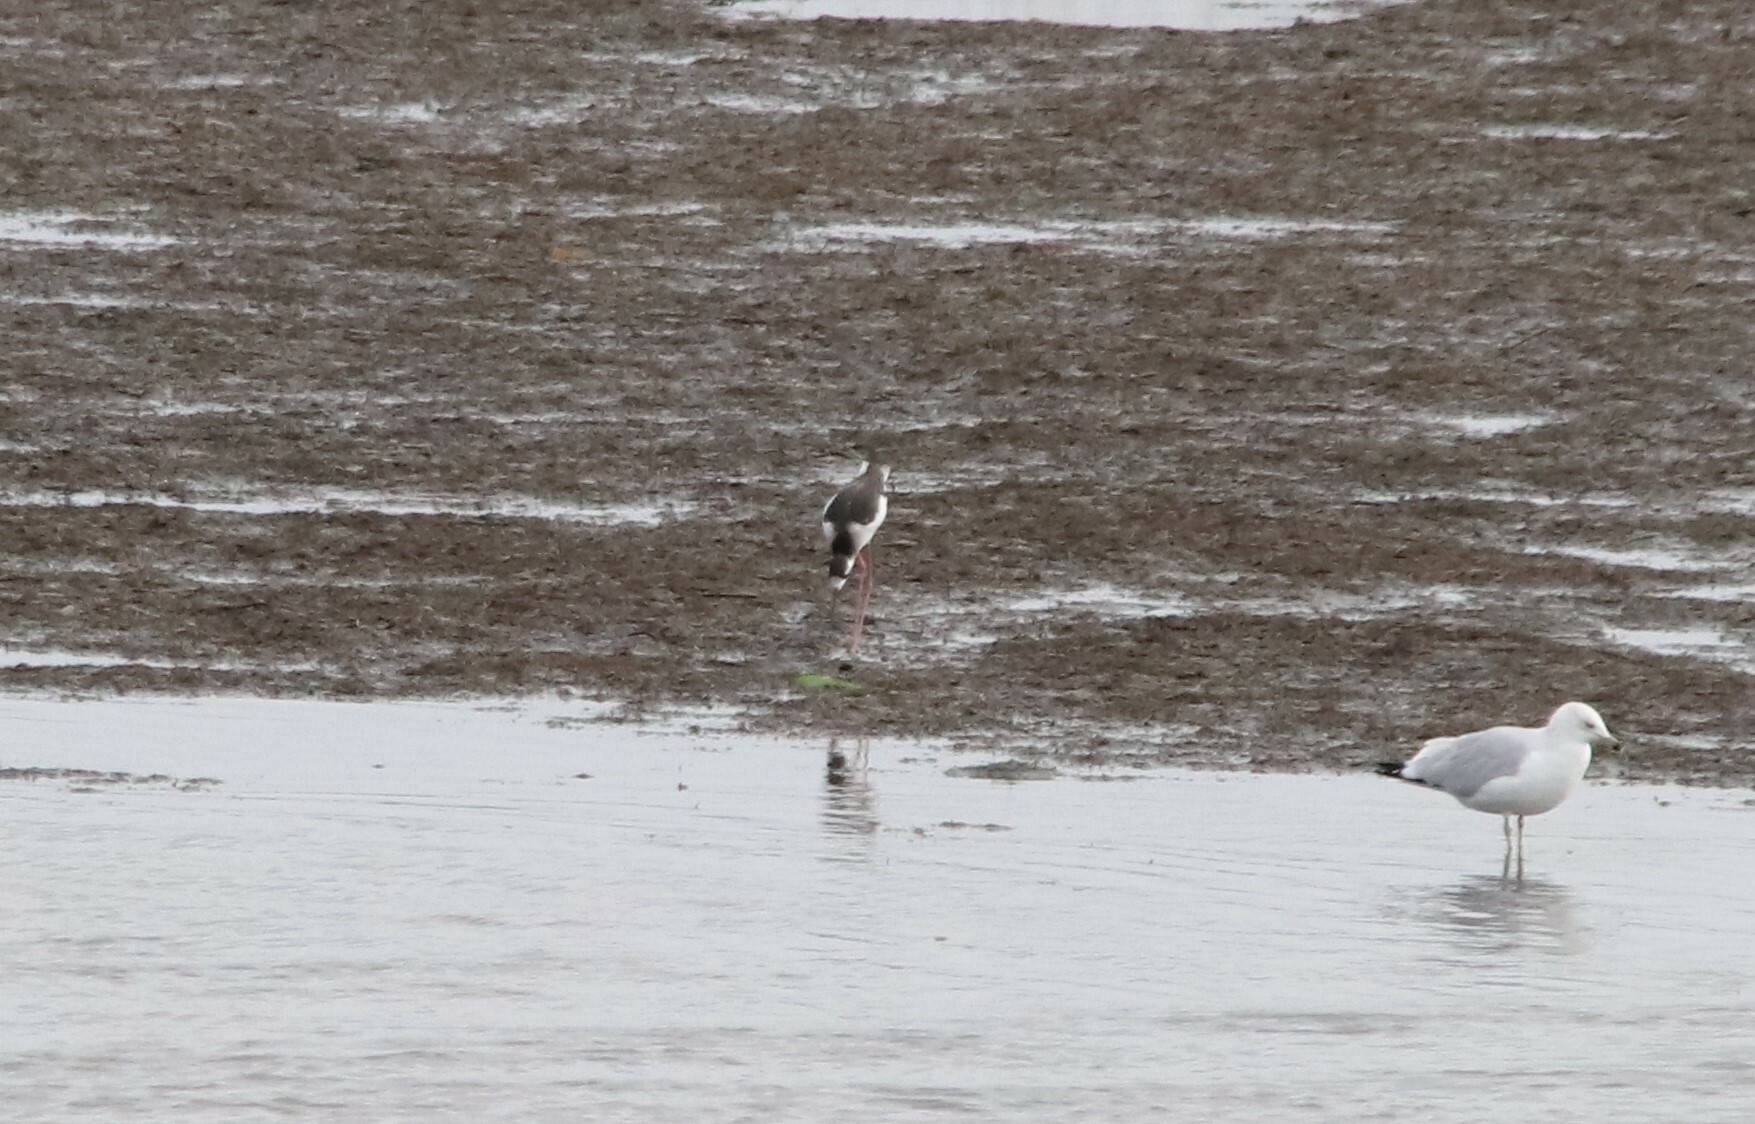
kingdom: Animalia
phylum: Chordata
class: Aves
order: Charadriiformes
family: Recurvirostridae
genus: Himantopus
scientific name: Himantopus mexicanus
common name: Black-necked stilt
